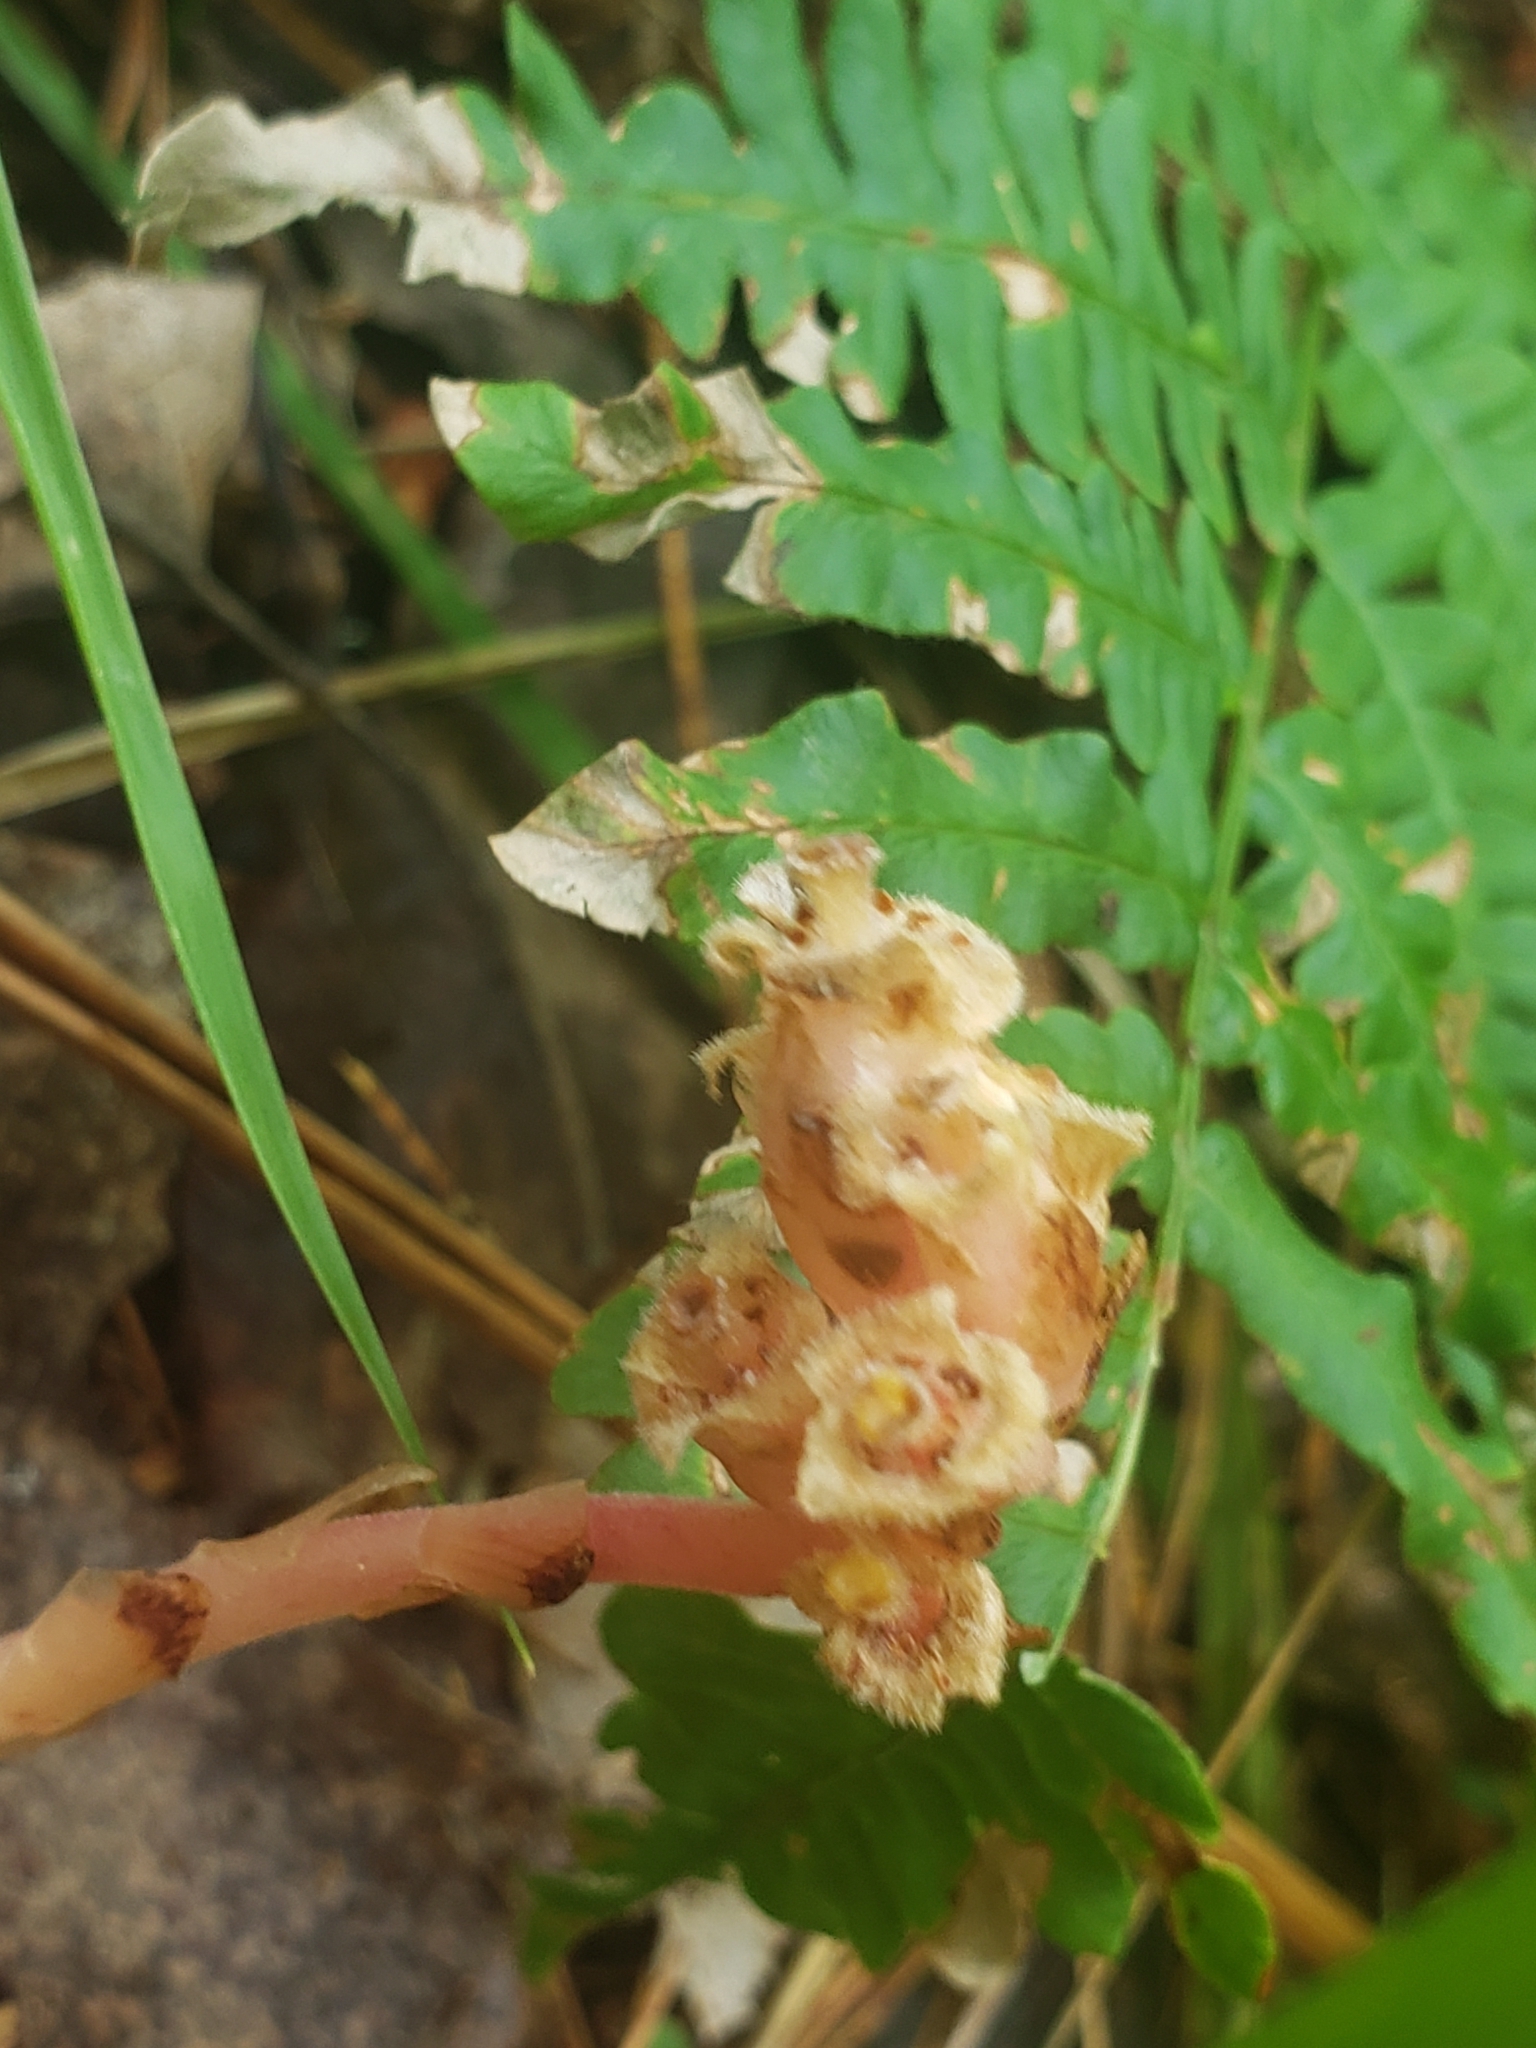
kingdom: Plantae
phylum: Tracheophyta
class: Magnoliopsida
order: Ericales
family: Ericaceae
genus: Hypopitys
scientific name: Hypopitys monotropa
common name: Yellow bird's-nest
